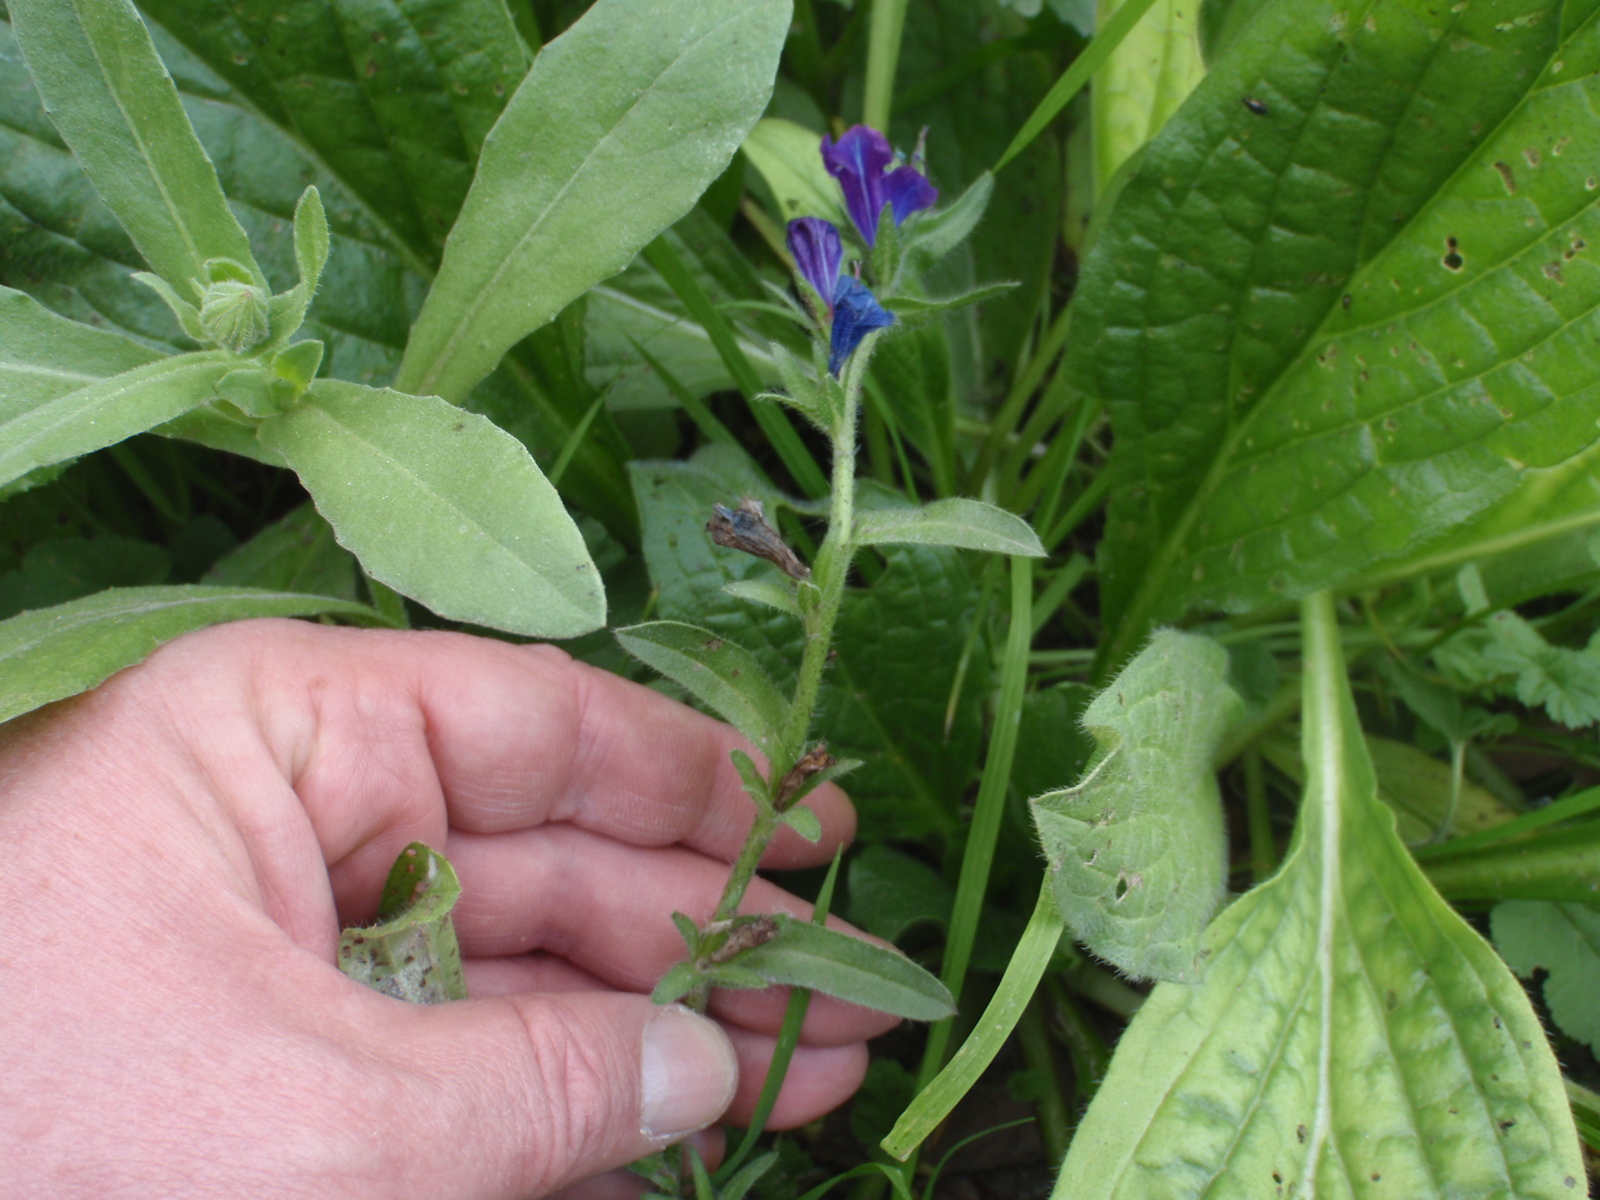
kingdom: Plantae
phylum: Tracheophyta
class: Magnoliopsida
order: Boraginales
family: Boraginaceae
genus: Echium
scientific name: Echium plantagineum
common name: Purple viper's-bugloss
